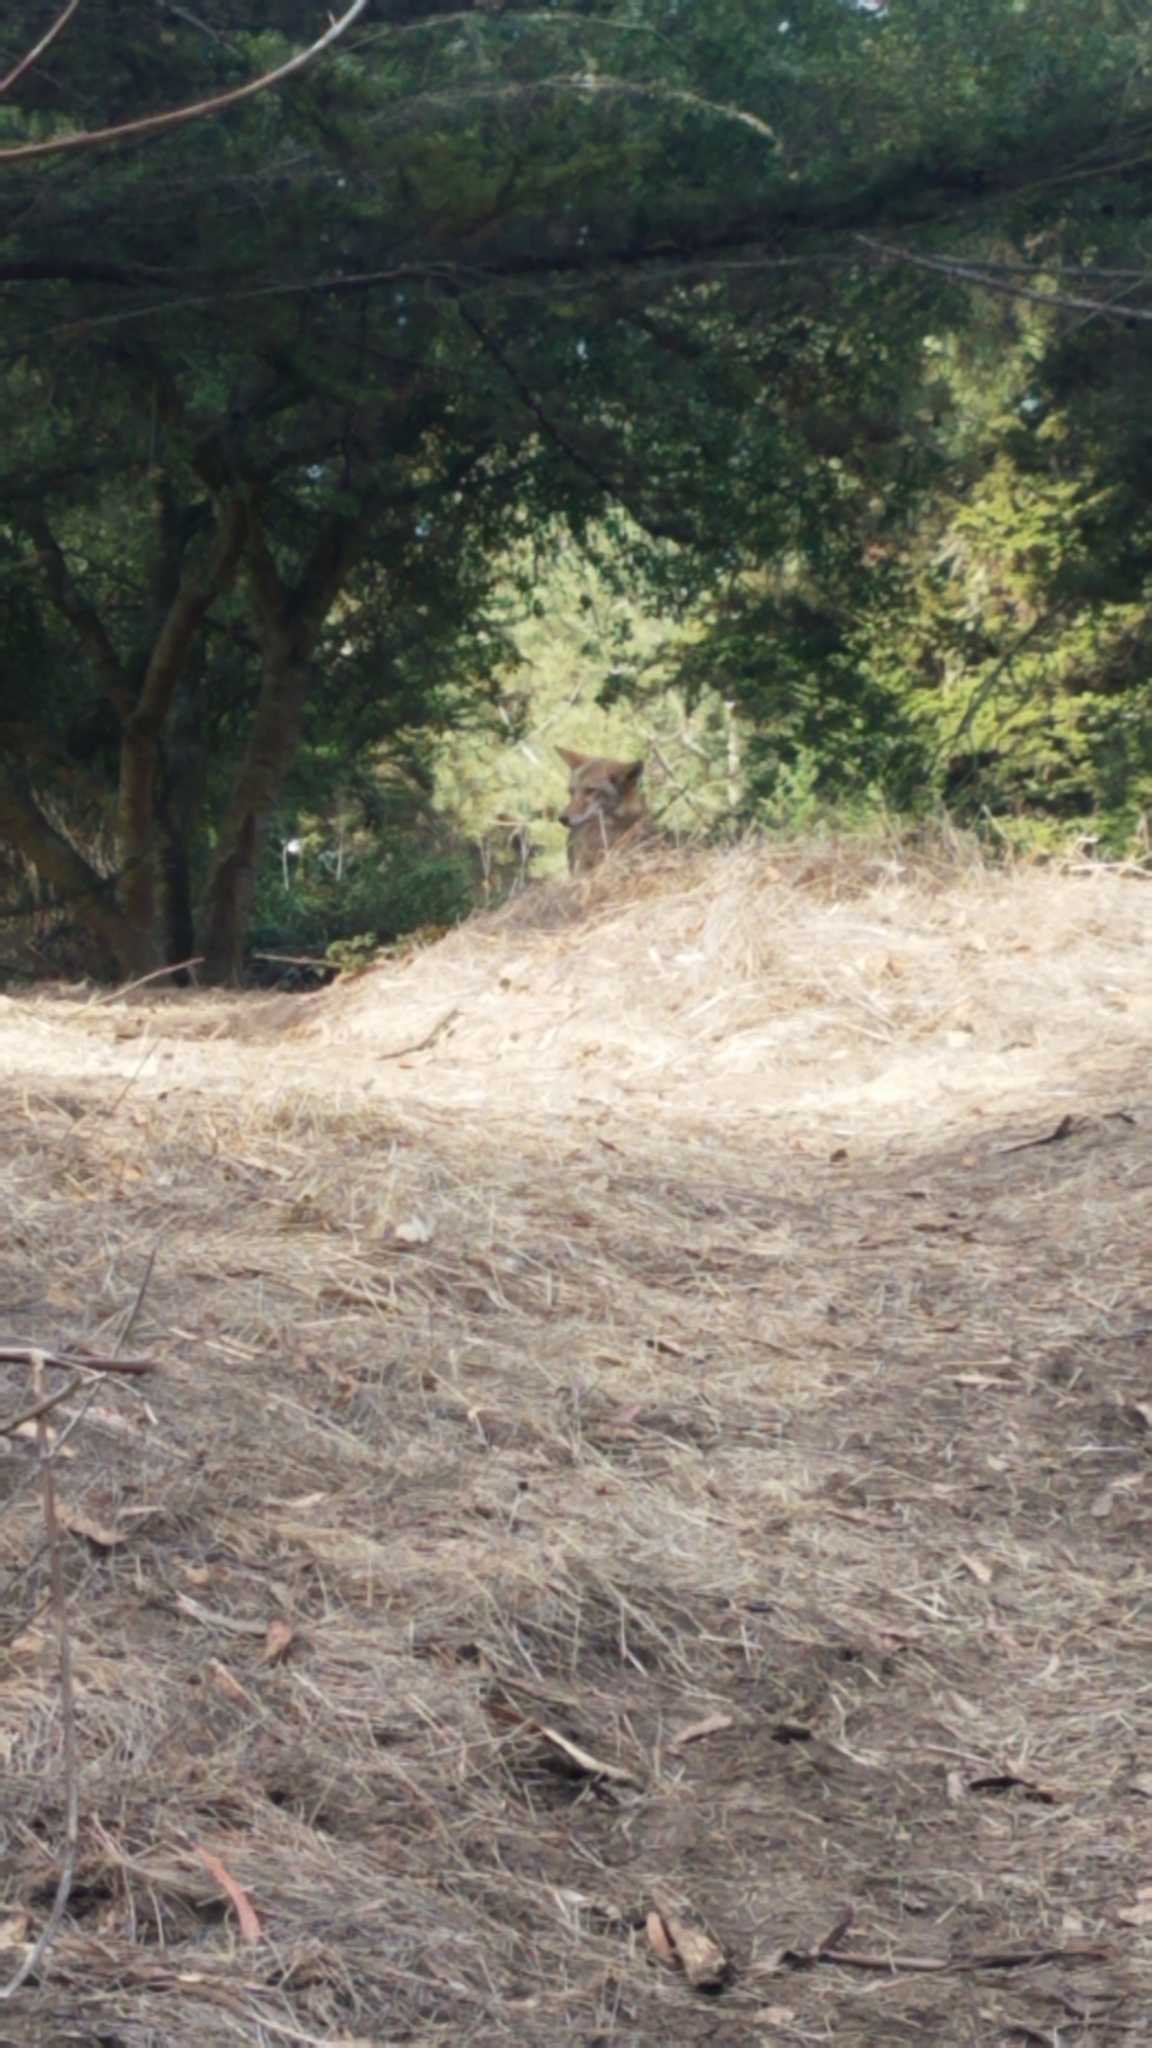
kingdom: Animalia
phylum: Chordata
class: Mammalia
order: Carnivora
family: Canidae
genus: Canis
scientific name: Canis latrans
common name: Coyote
